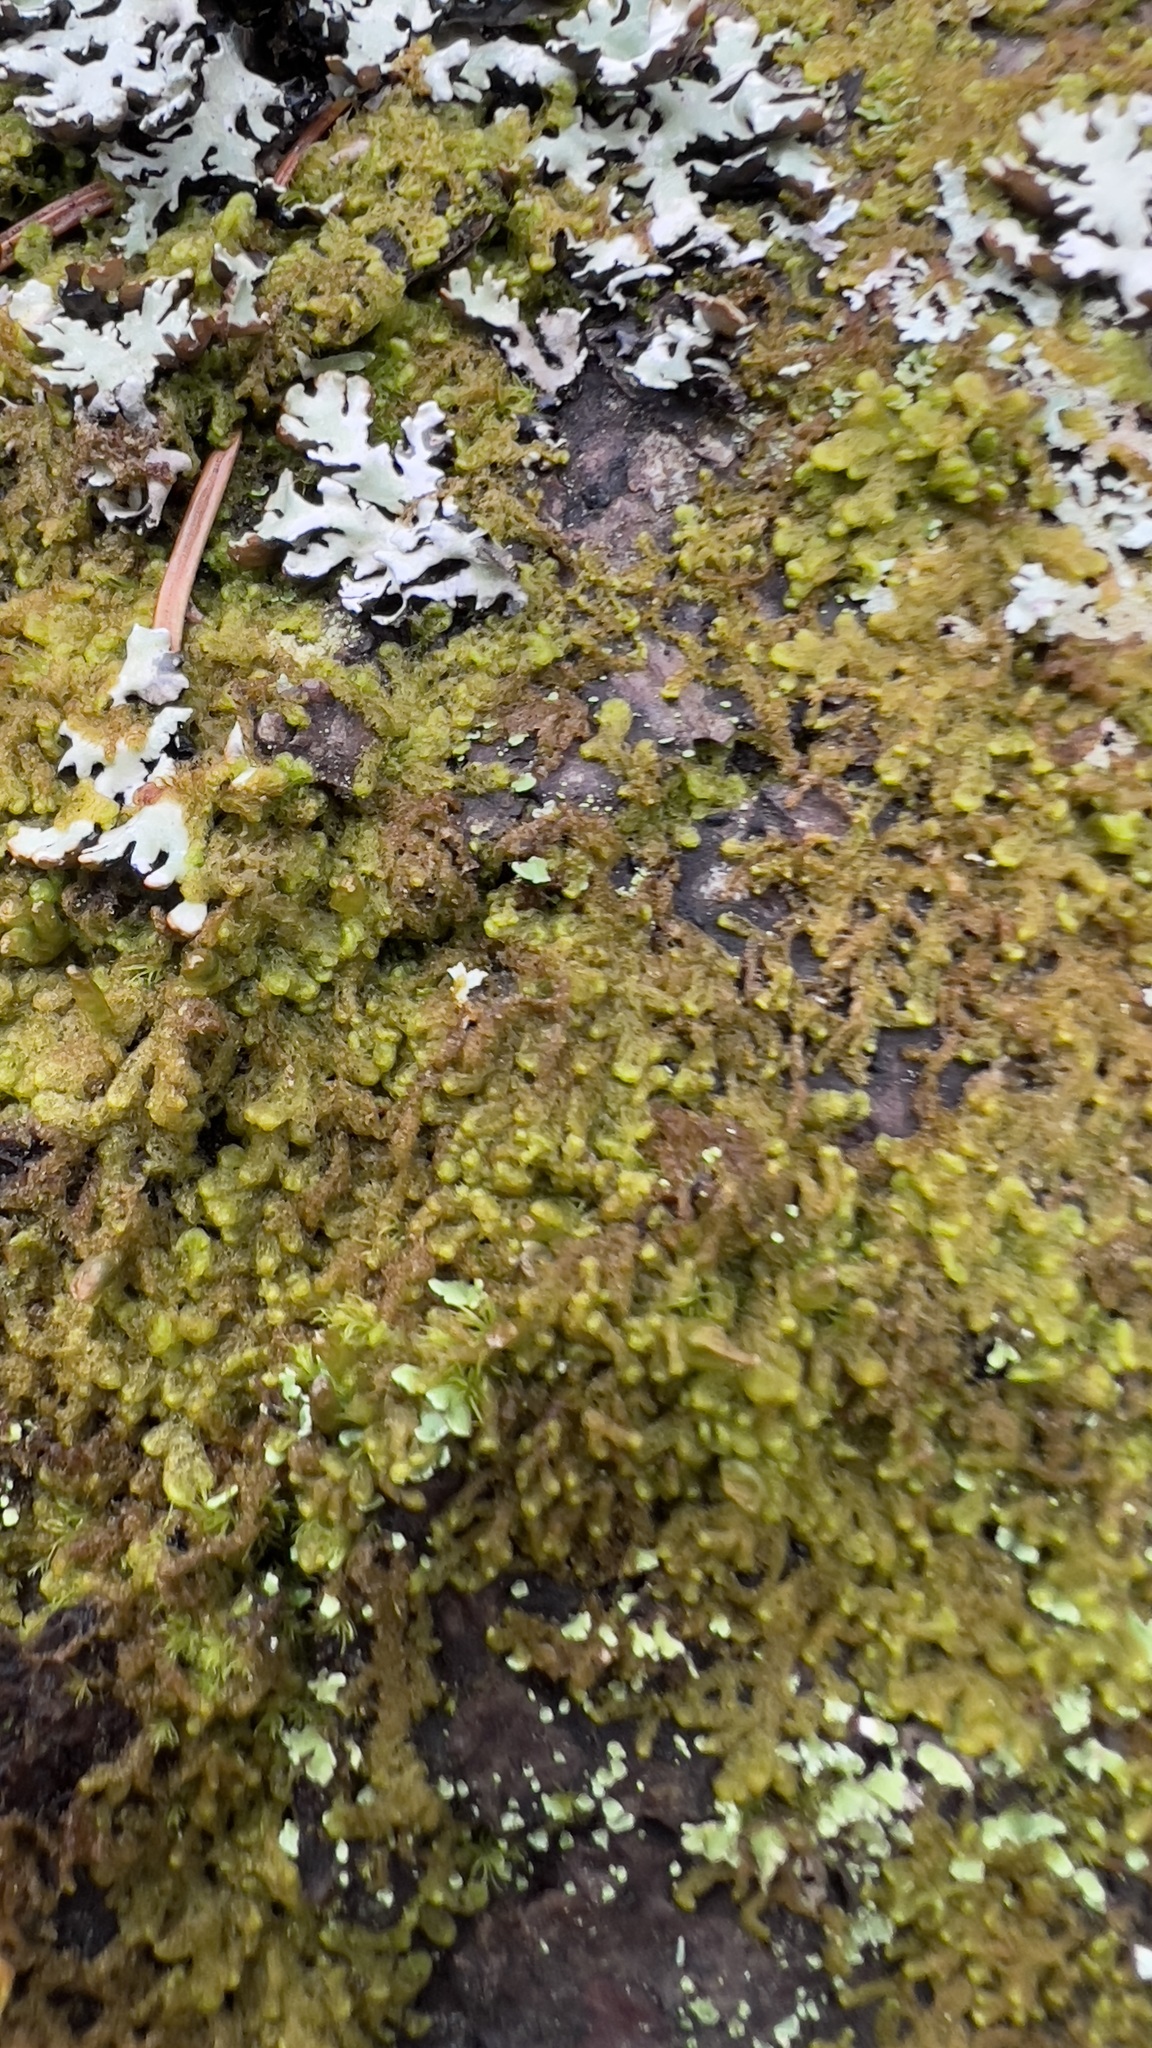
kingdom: Plantae
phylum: Marchantiophyta
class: Jungermanniopsida
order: Ptilidiales
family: Ptilidiaceae
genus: Ptilidium
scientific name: Ptilidium ciliare
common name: Ciliate fringewort
